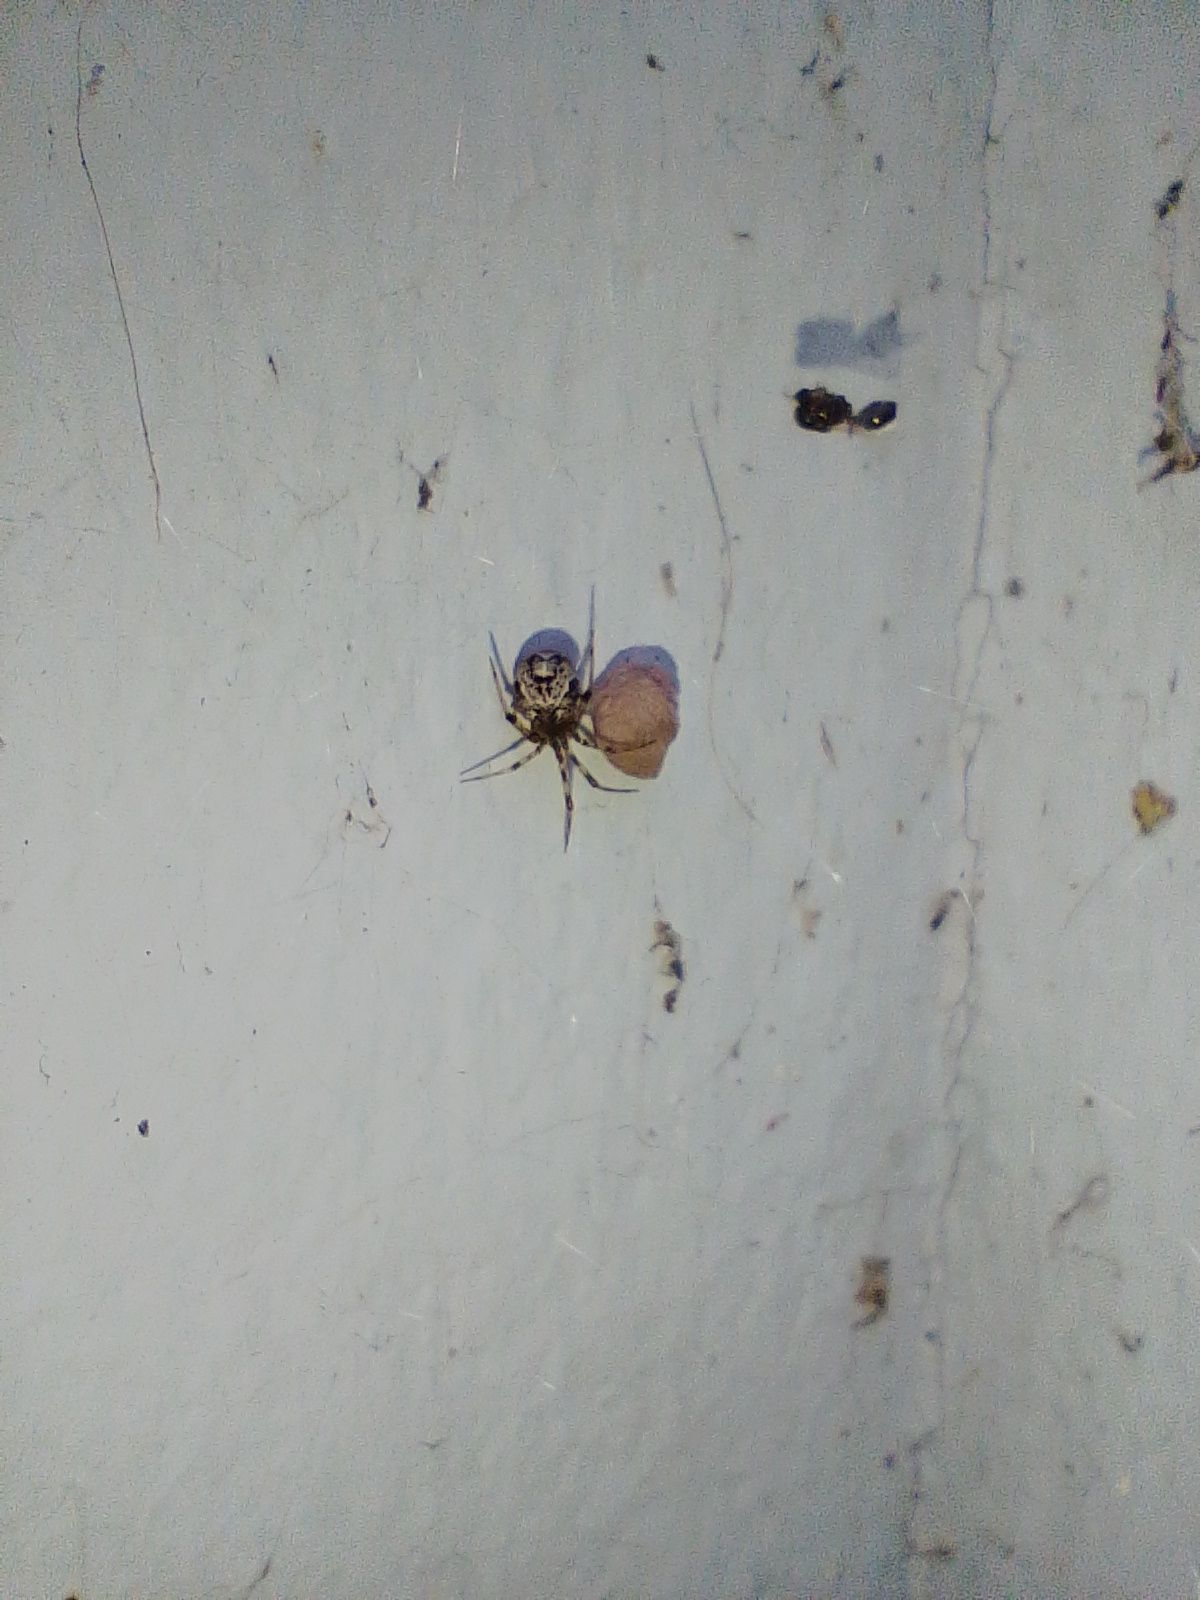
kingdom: Animalia
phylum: Arthropoda
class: Arachnida
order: Araneae
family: Theridiidae
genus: Parasteatoda
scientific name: Parasteatoda tepidariorum
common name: Common house spider
